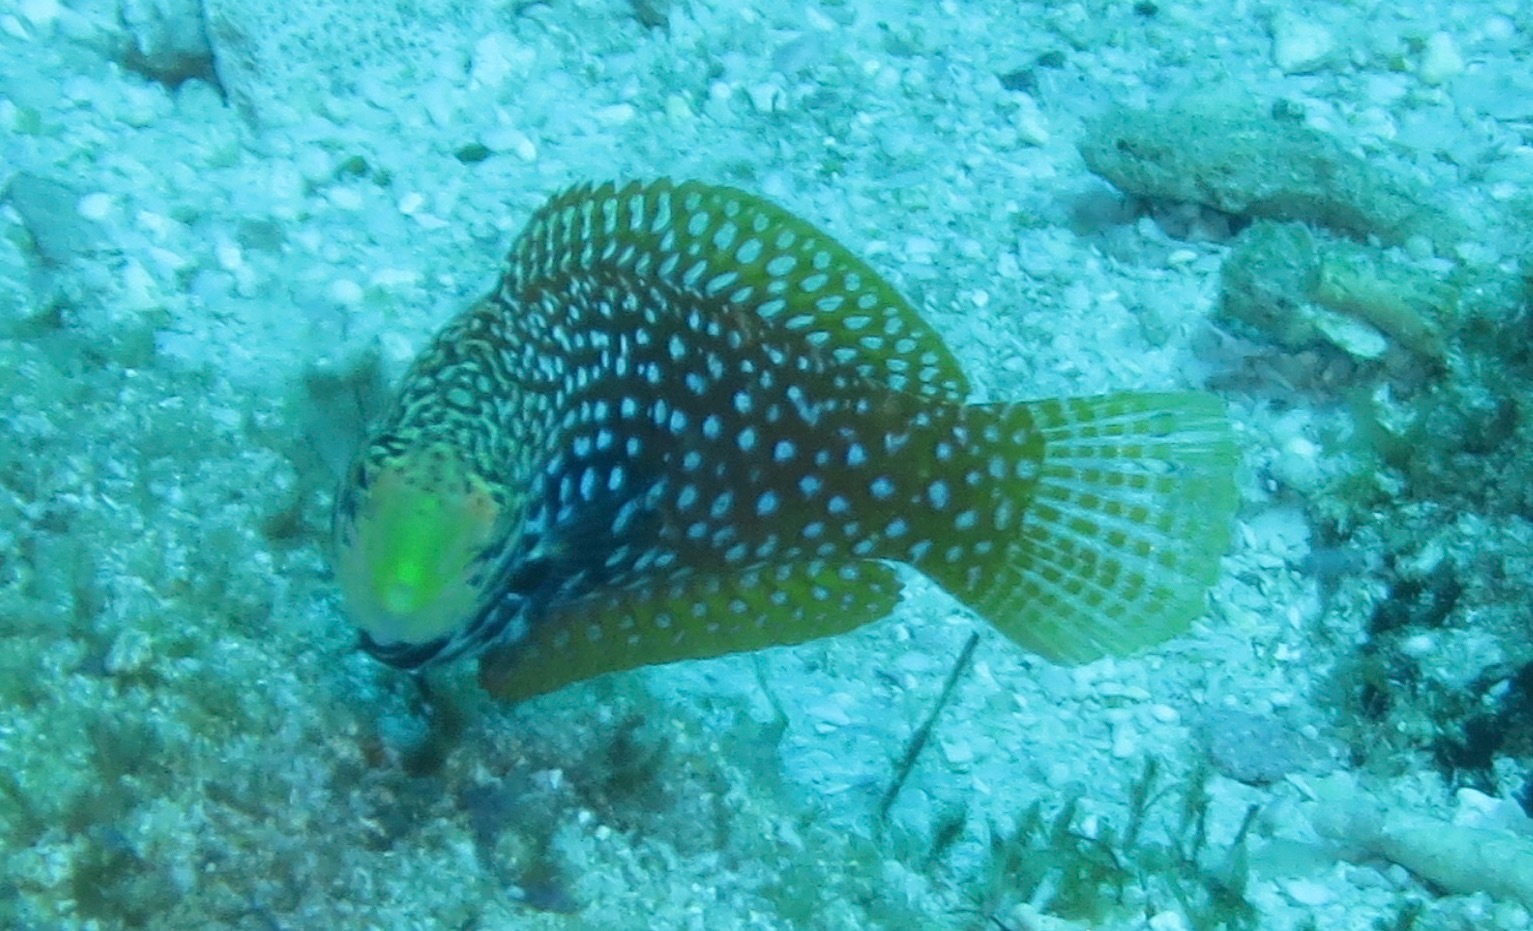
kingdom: Animalia
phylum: Chordata
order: Perciformes
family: Labridae
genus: Macropharyngodon
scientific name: Macropharyngodon bipartitus
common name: Divided wrasse
